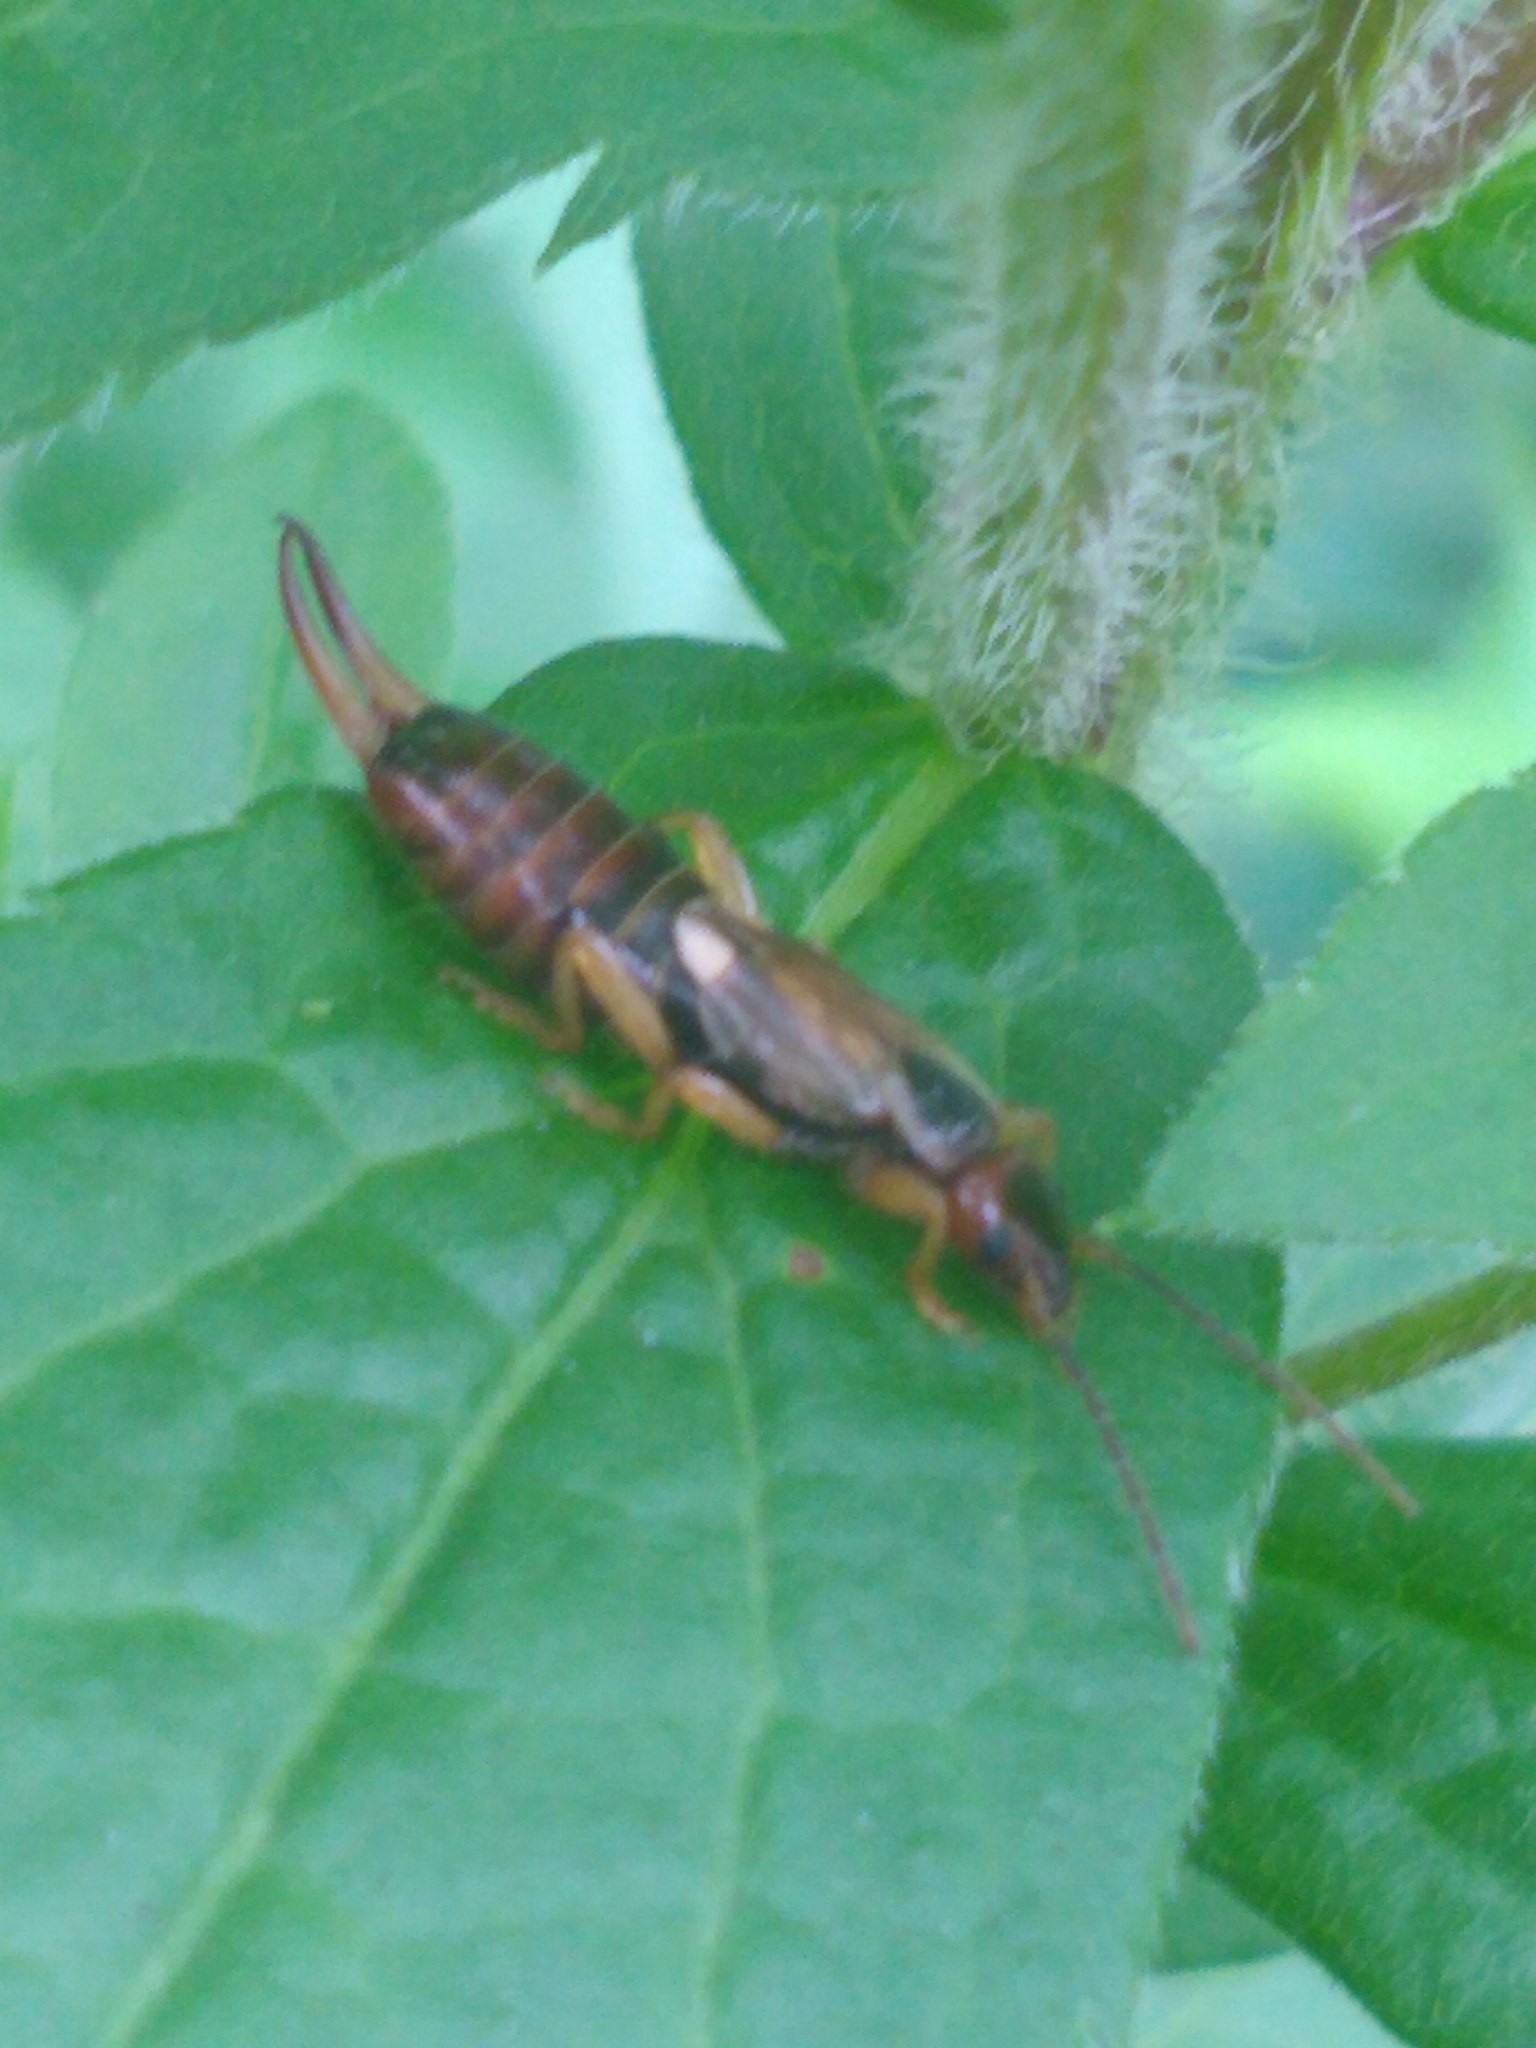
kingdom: Animalia
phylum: Arthropoda
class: Insecta
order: Dermaptera
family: Forficulidae
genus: Forficula
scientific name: Forficula
